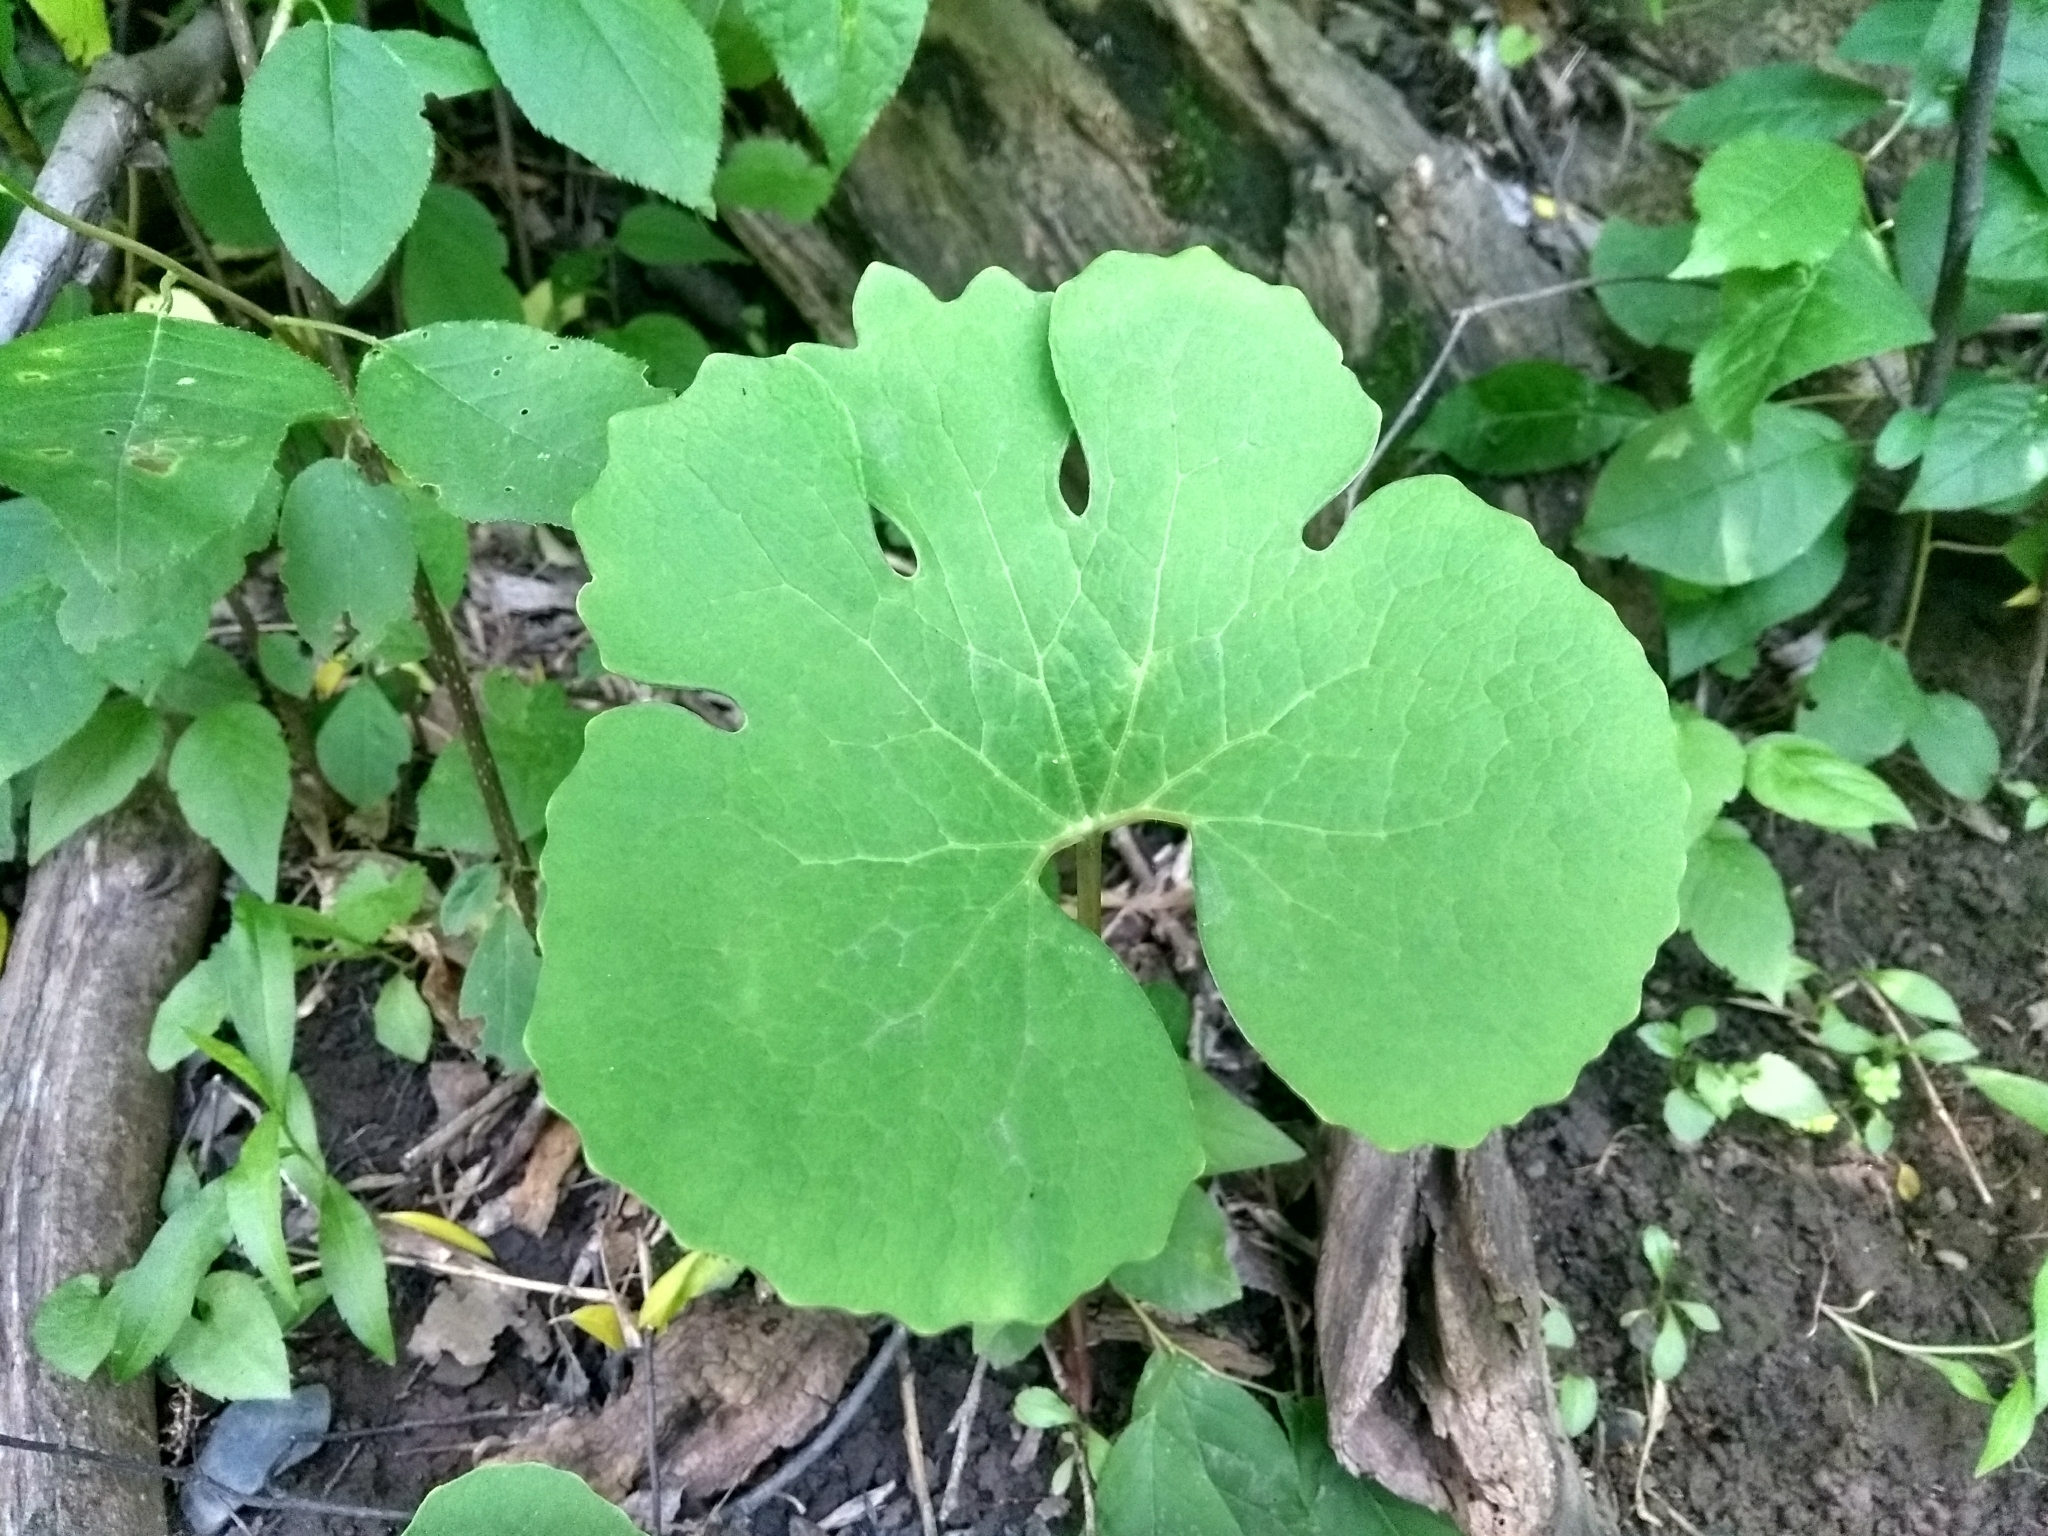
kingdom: Plantae
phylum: Tracheophyta
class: Magnoliopsida
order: Ranunculales
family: Papaveraceae
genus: Sanguinaria
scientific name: Sanguinaria canadensis
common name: Bloodroot
